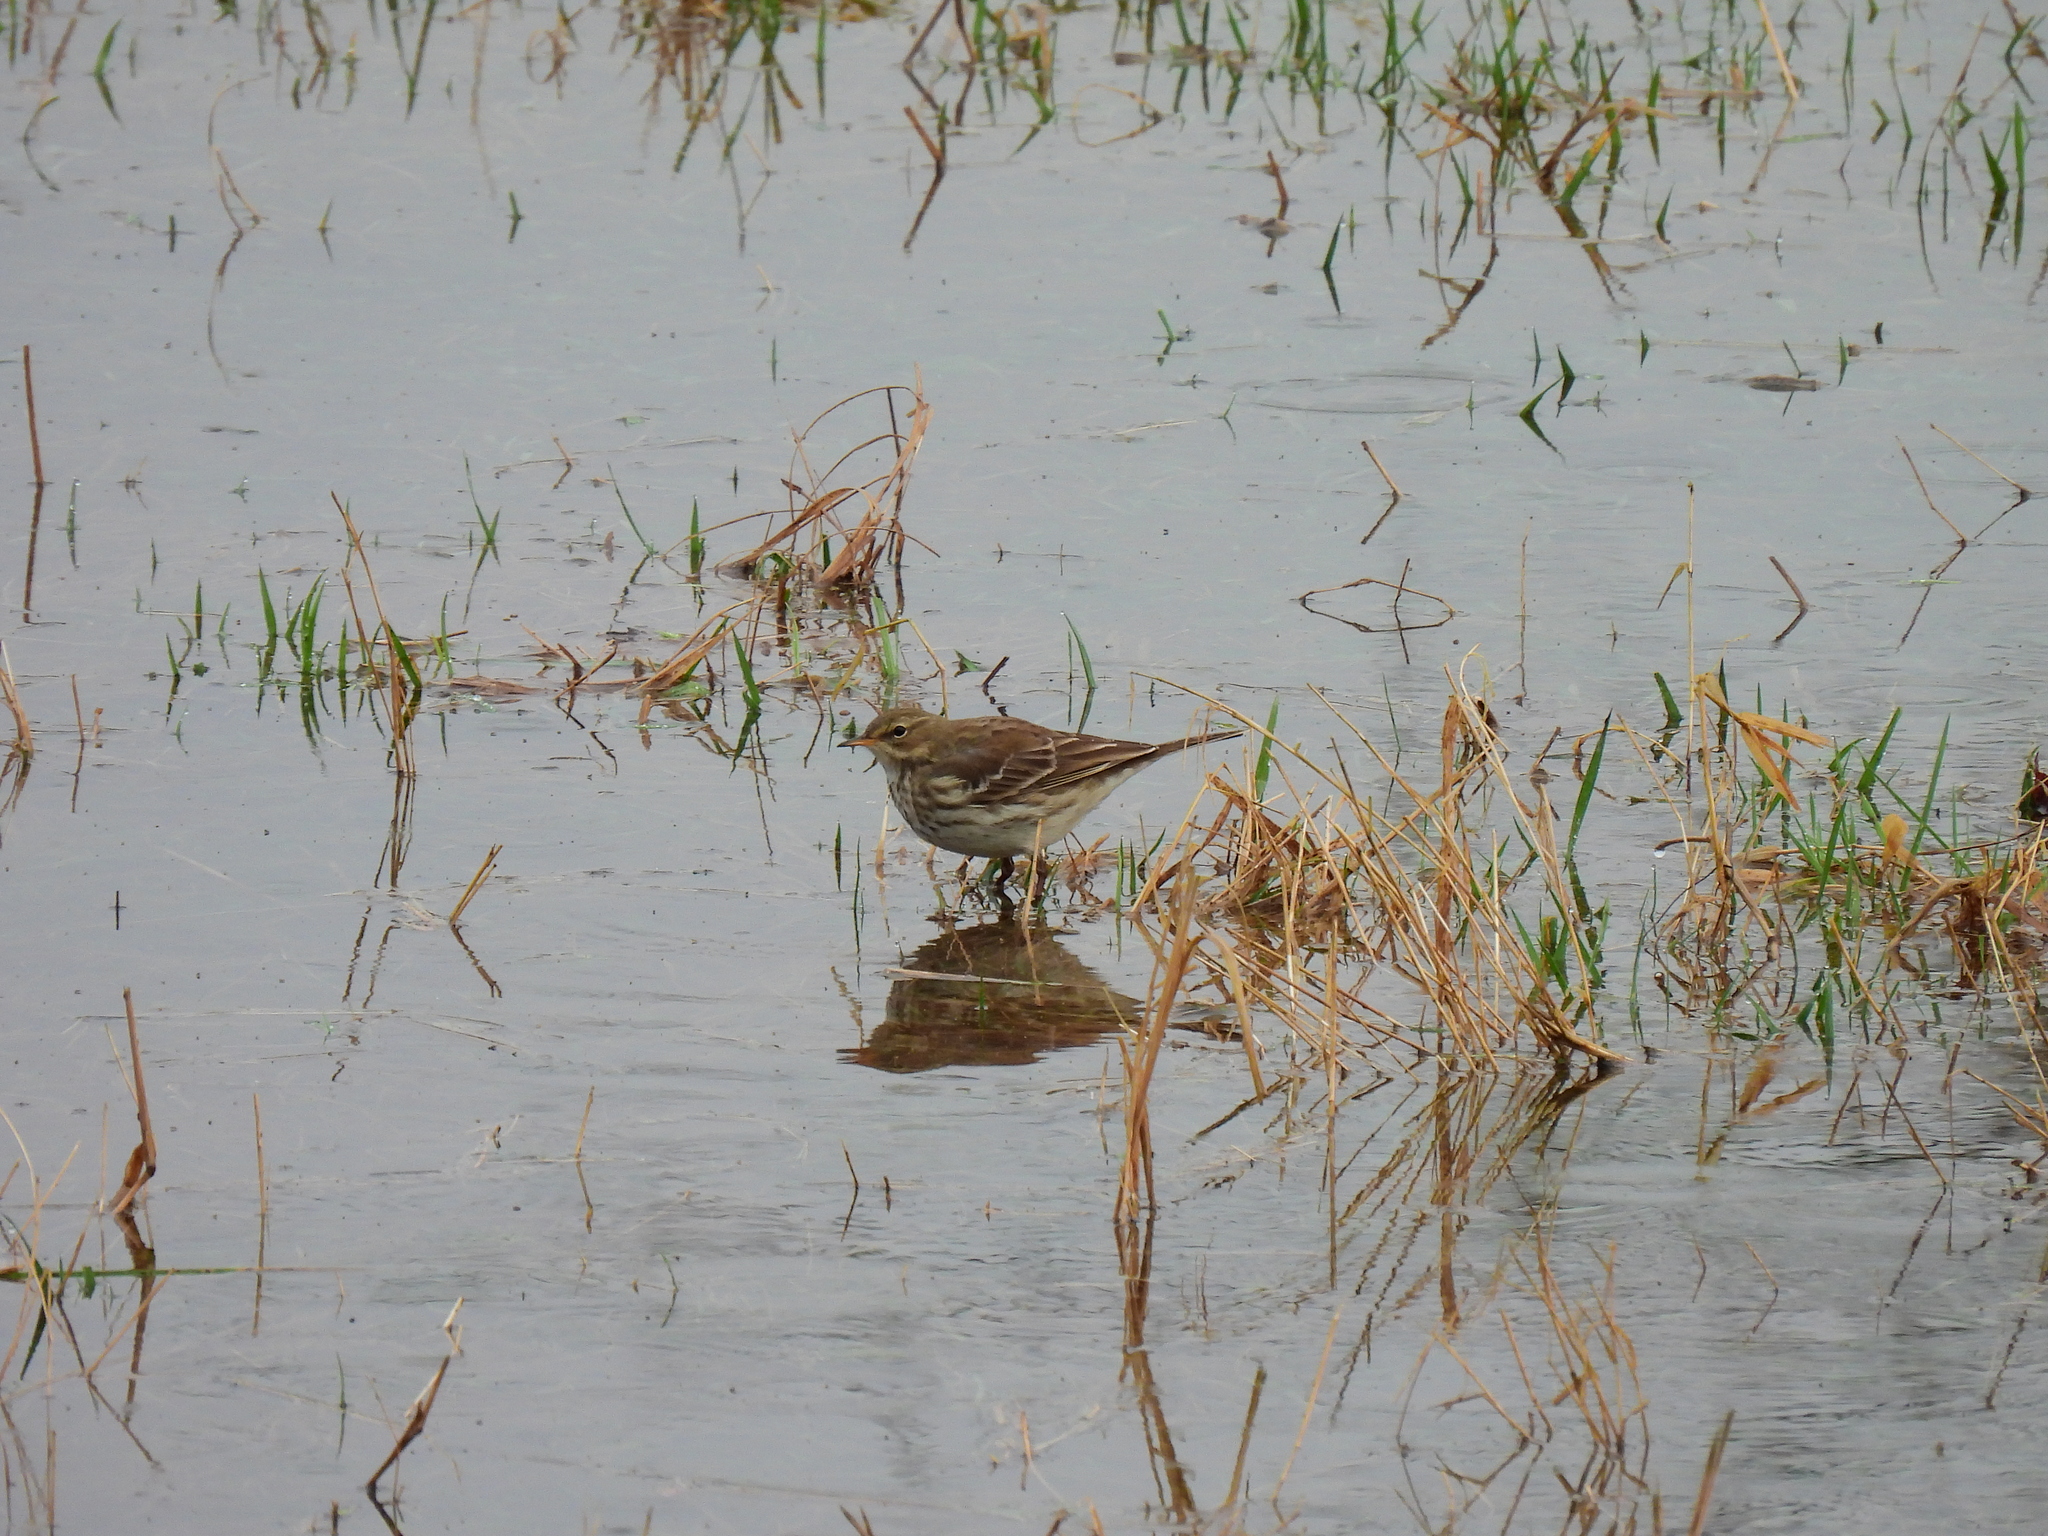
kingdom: Animalia
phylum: Chordata
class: Aves
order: Passeriformes
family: Motacillidae
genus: Anthus
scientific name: Anthus spinoletta
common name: Water pipit
